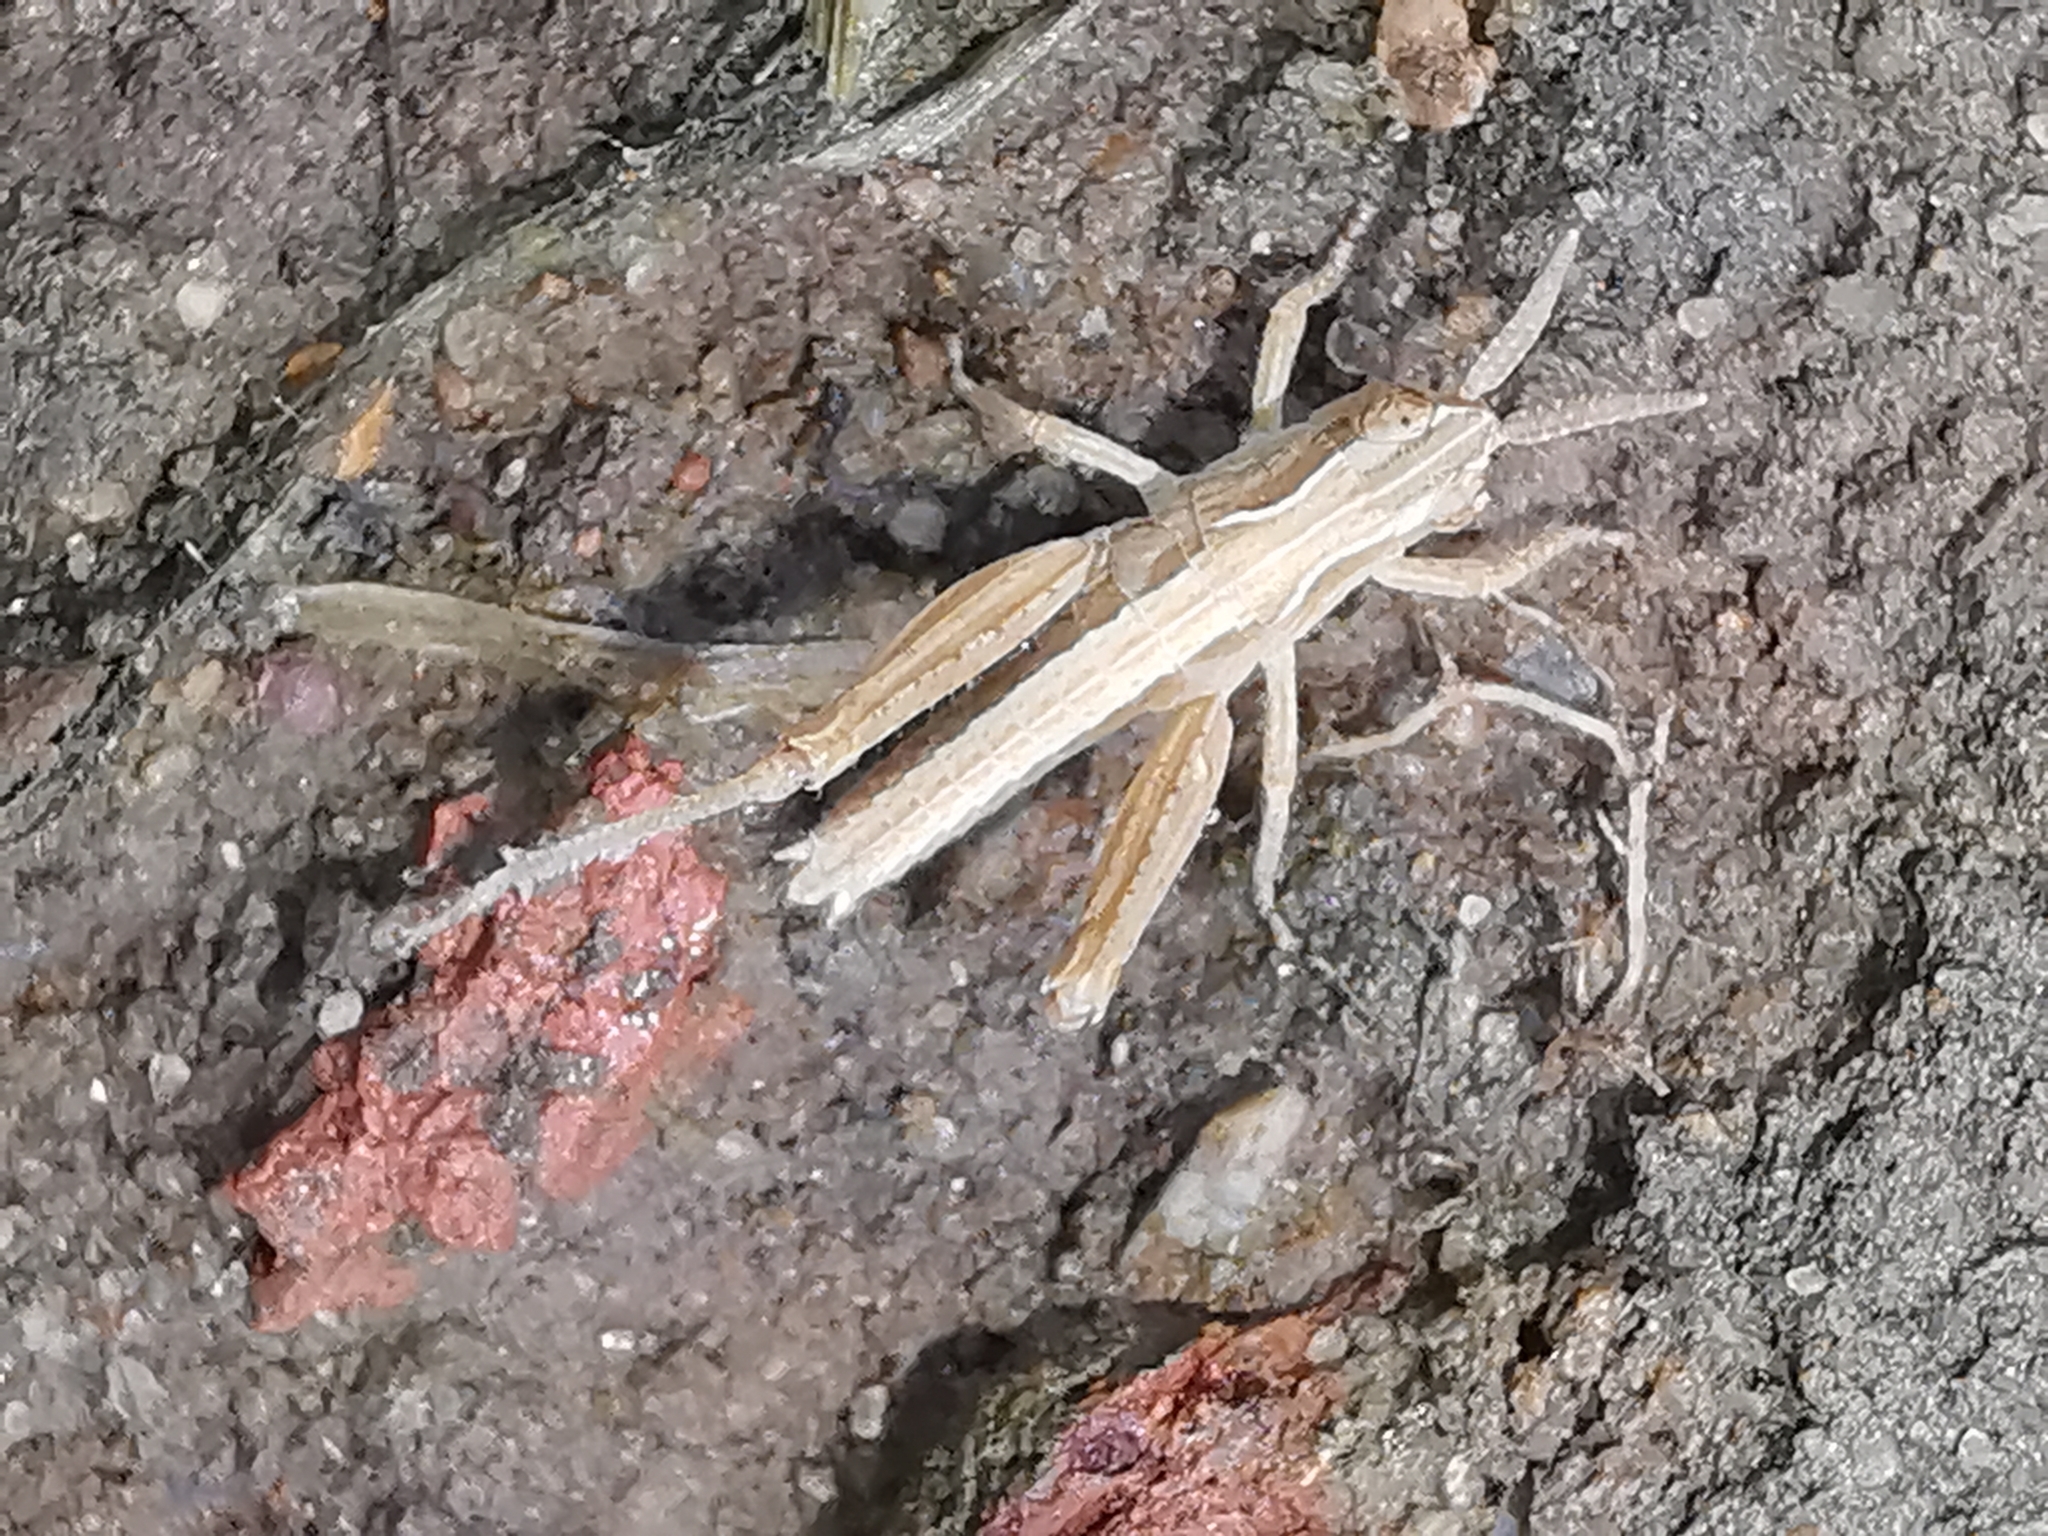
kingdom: Animalia
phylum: Arthropoda
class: Insecta
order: Orthoptera
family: Acrididae
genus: Chorthippus
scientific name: Chorthippus brunneus
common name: Field grasshopper
